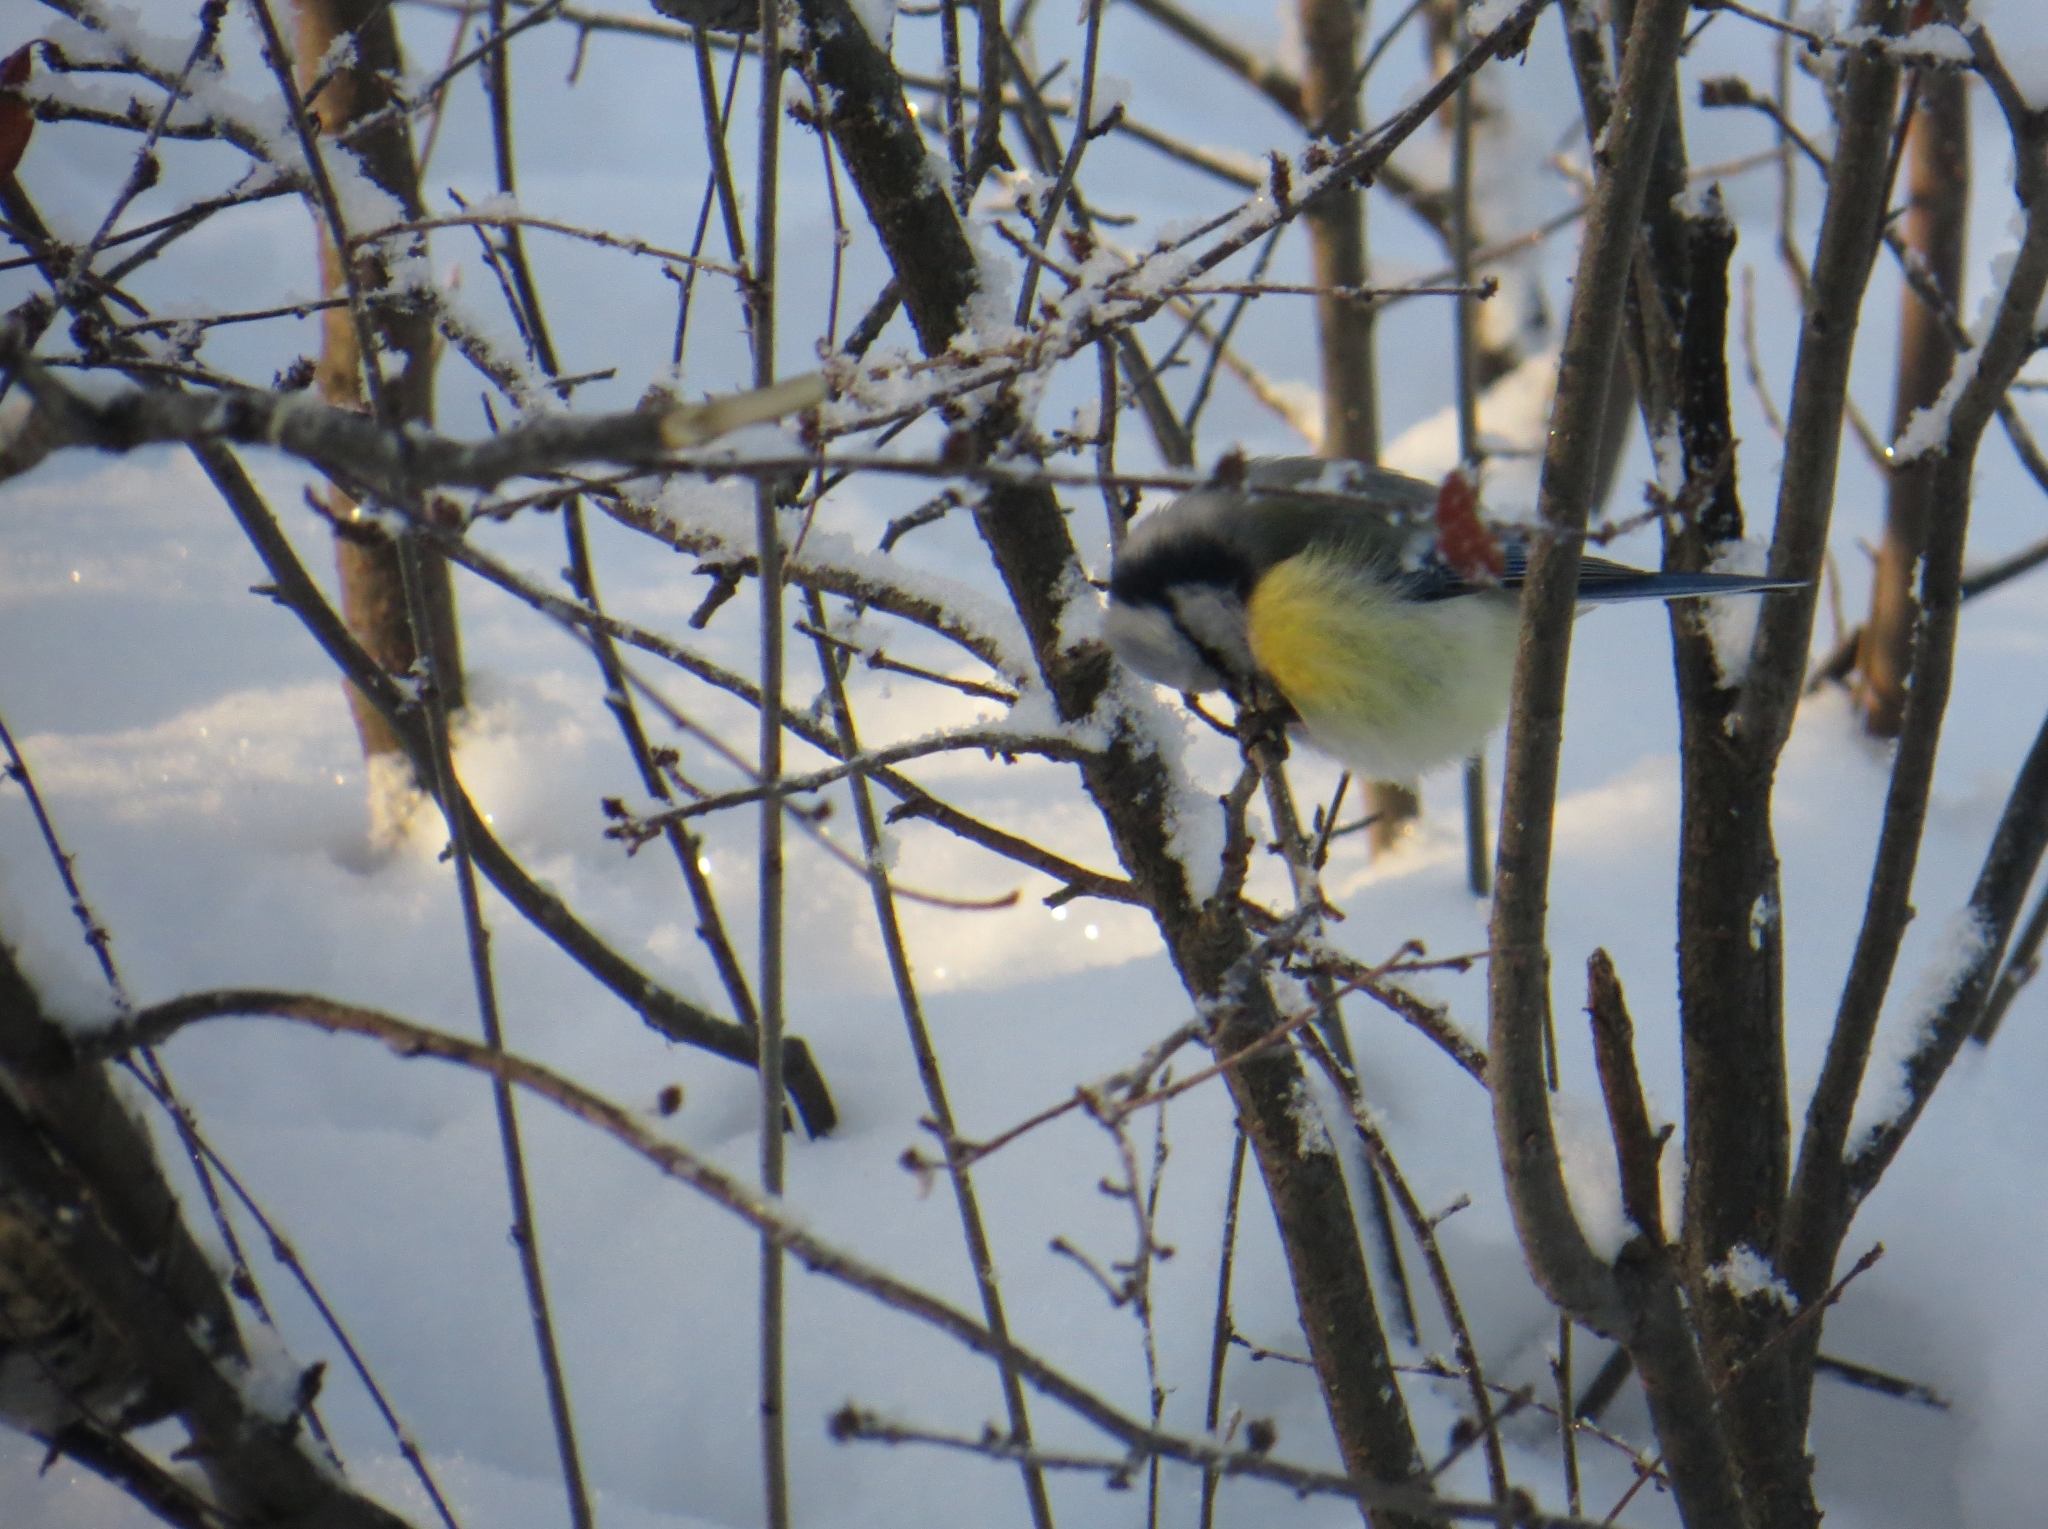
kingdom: Animalia
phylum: Chordata
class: Aves
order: Passeriformes
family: Paridae
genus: Cyanistes
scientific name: Cyanistes caeruleus
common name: Eurasian blue tit
